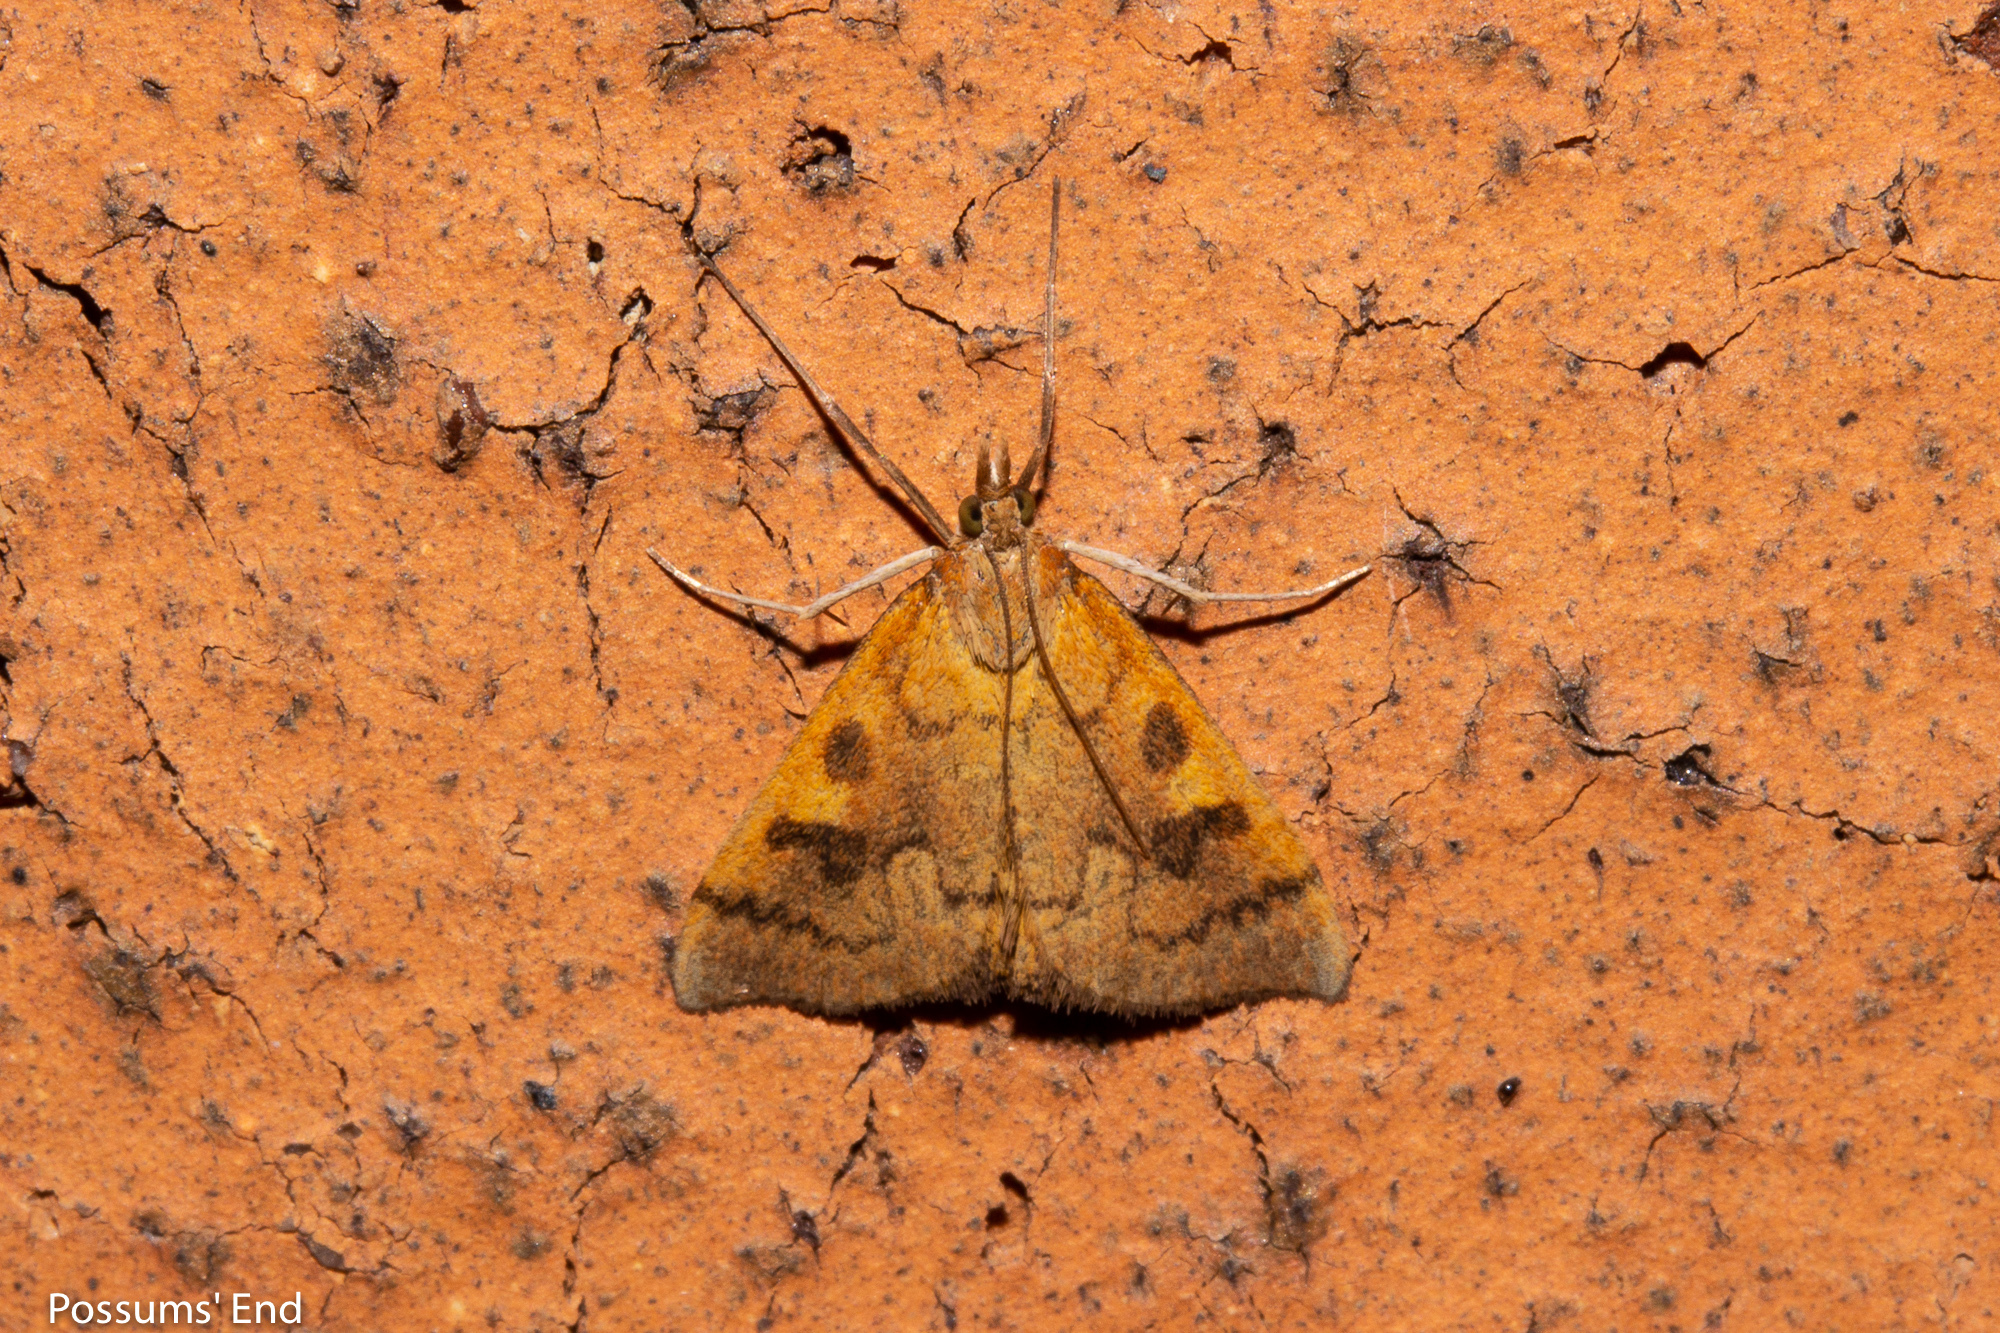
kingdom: Animalia
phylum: Arthropoda
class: Insecta
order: Lepidoptera
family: Crambidae
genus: Udea
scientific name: Udea Mnesictena flavidalis
